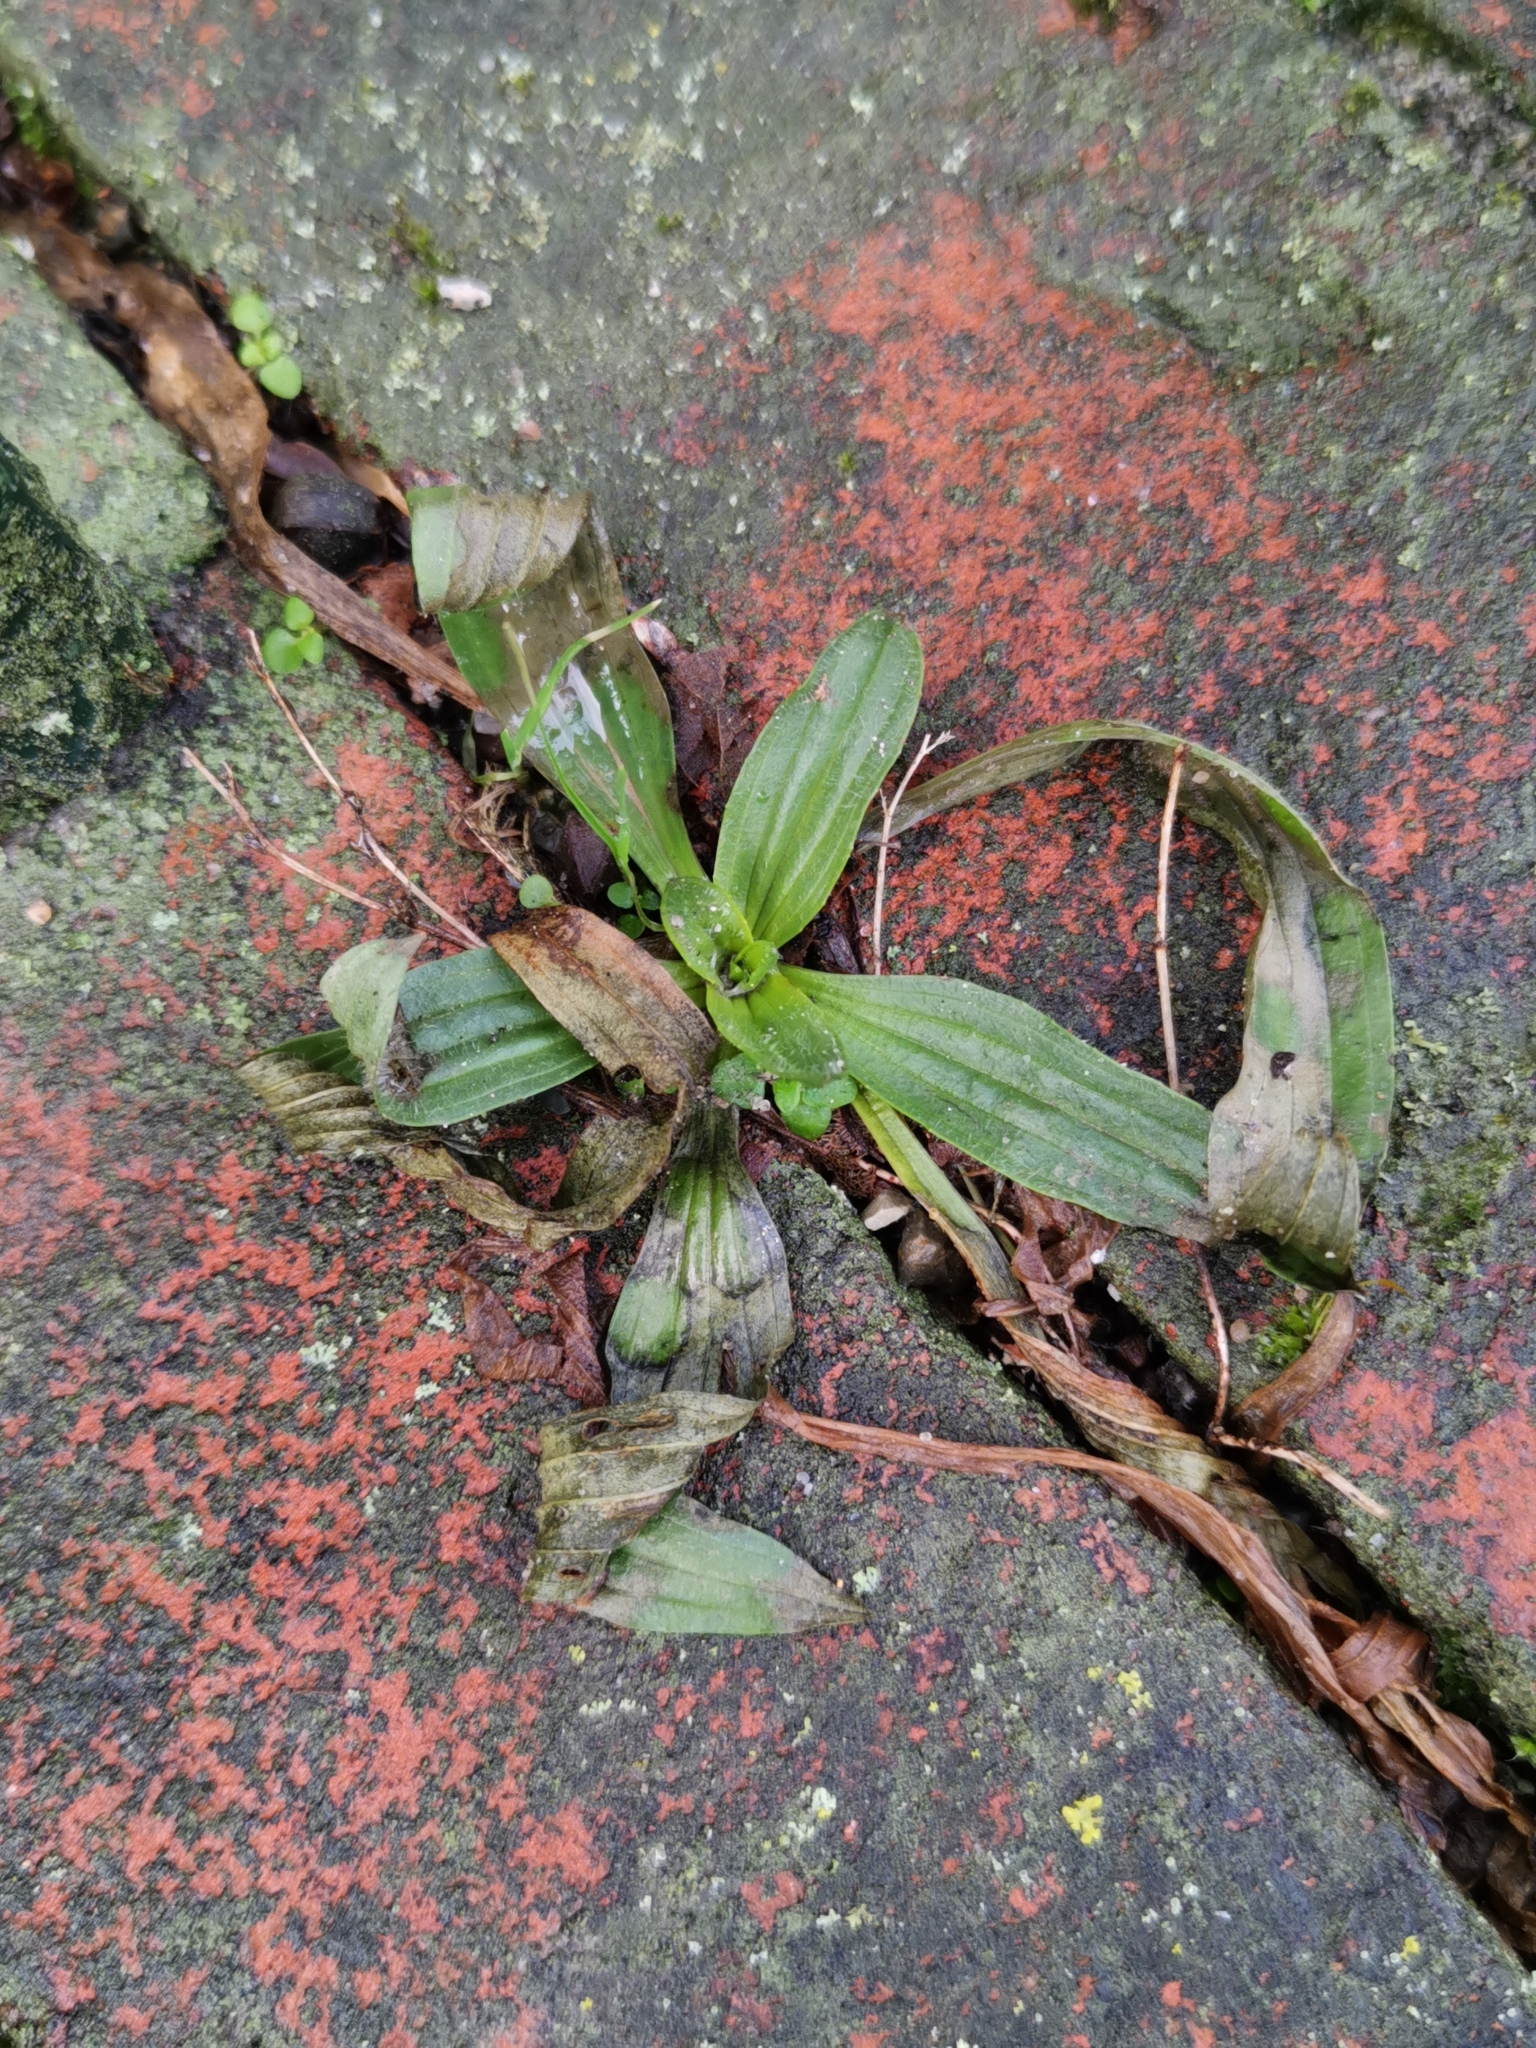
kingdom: Plantae
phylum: Tracheophyta
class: Magnoliopsida
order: Lamiales
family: Plantaginaceae
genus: Plantago
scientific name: Plantago lanceolata
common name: Ribwort plantain
